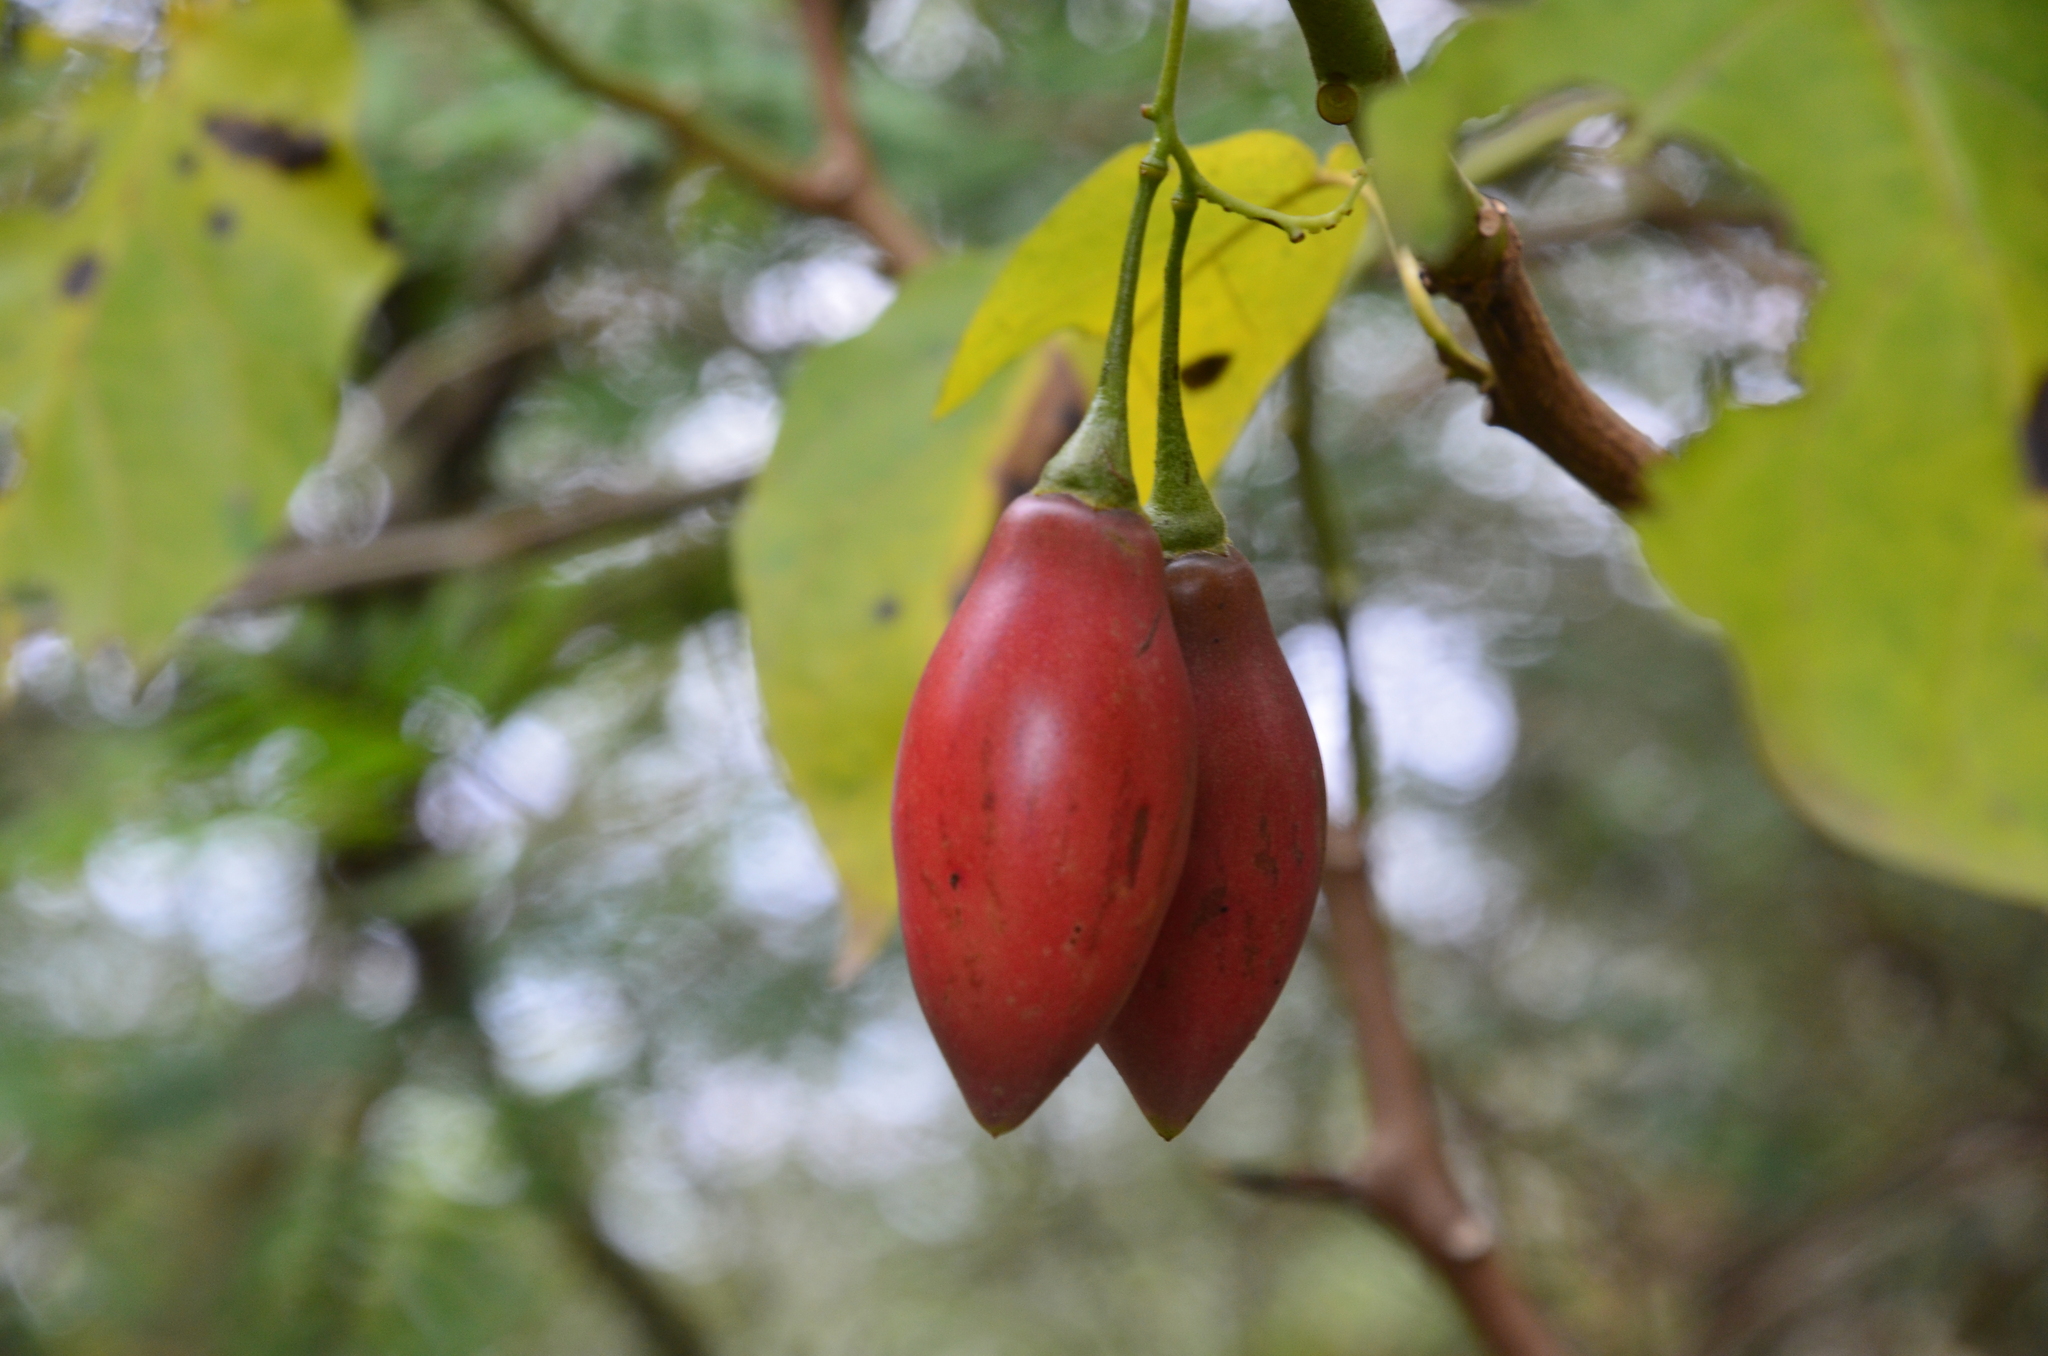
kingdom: Plantae
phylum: Tracheophyta
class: Magnoliopsida
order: Solanales
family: Solanaceae
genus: Solanum
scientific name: Solanum betaceum
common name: Tamarillo
